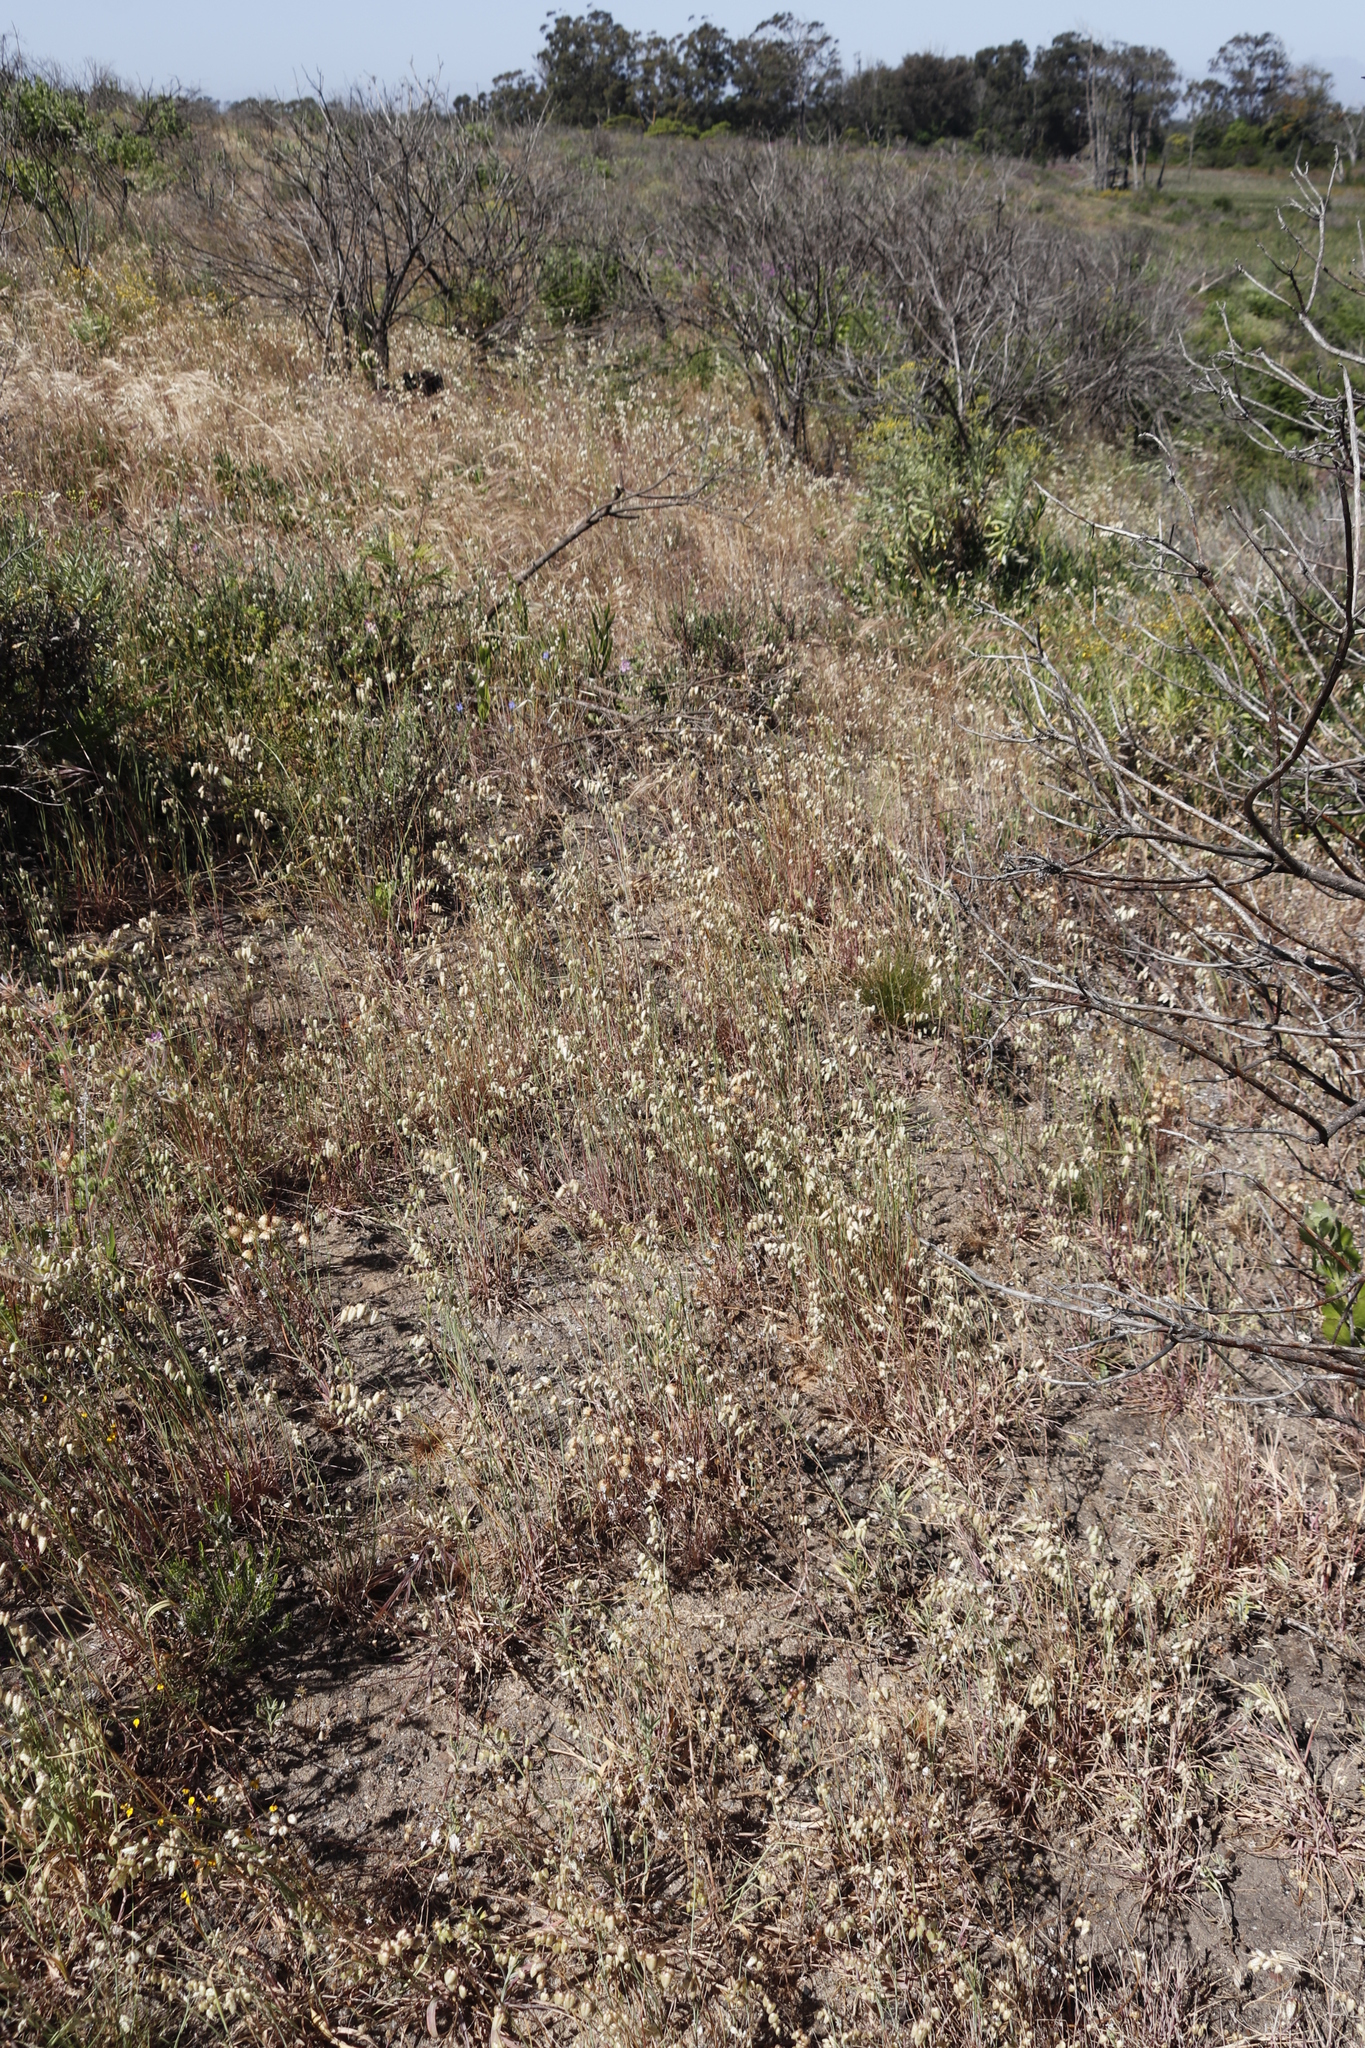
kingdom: Plantae
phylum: Tracheophyta
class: Liliopsida
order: Poales
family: Poaceae
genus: Briza
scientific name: Briza maxima
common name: Big quakinggrass
